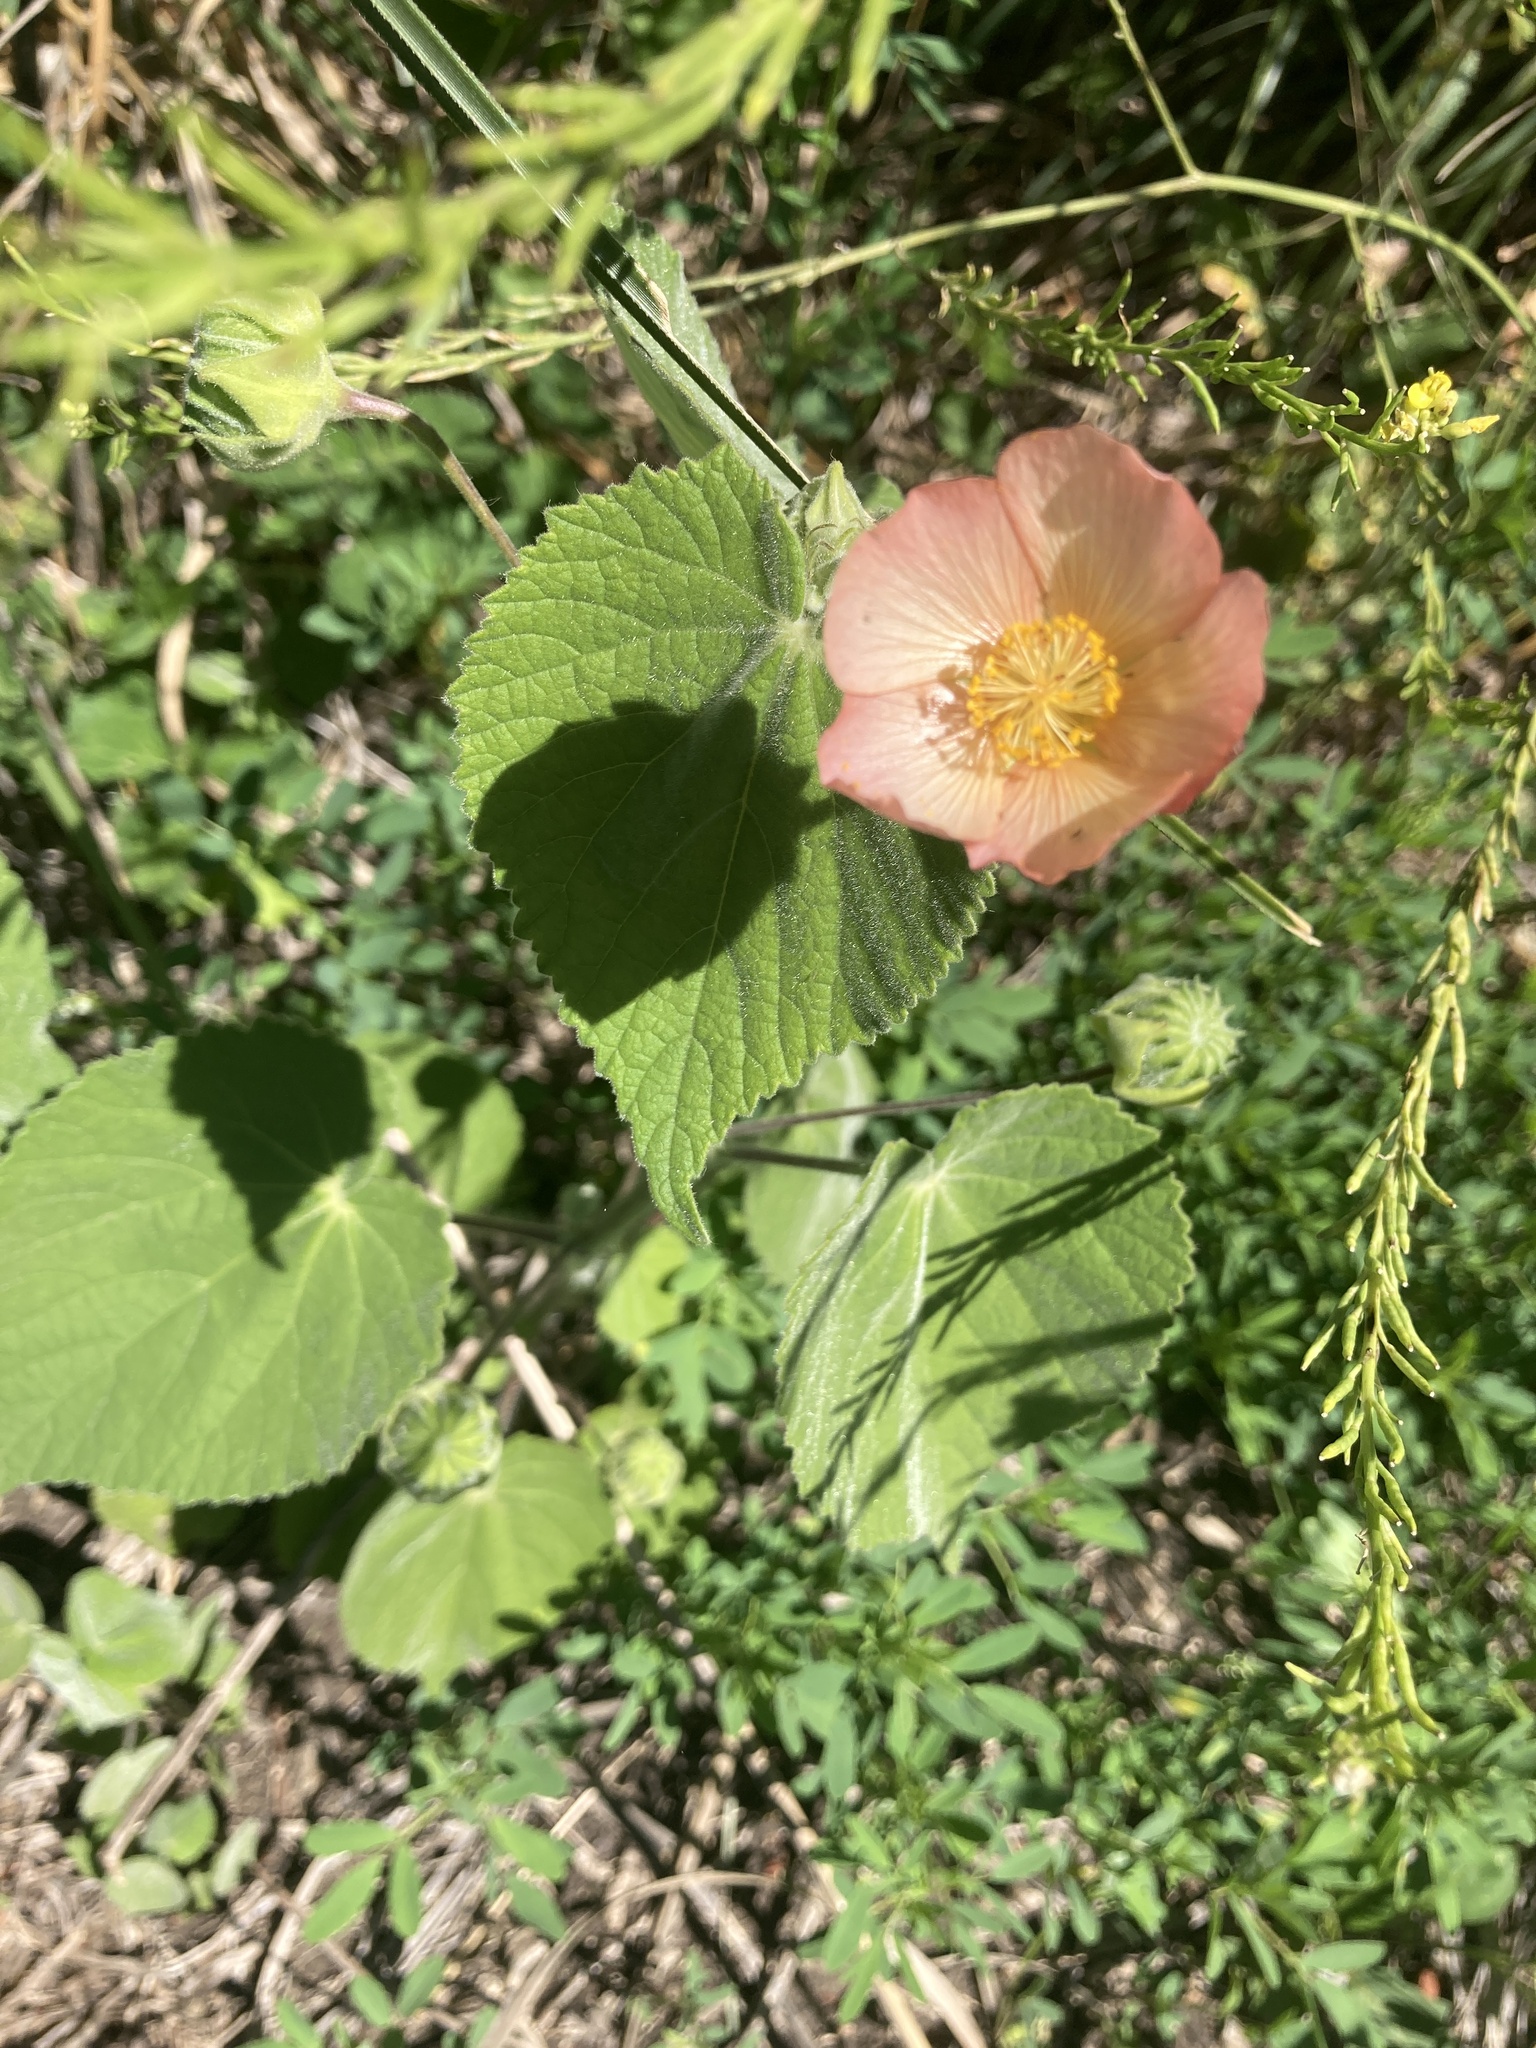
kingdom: Plantae
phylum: Tracheophyta
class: Magnoliopsida
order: Malvales
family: Malvaceae
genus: Callianthe
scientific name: Callianthe pauciflora
